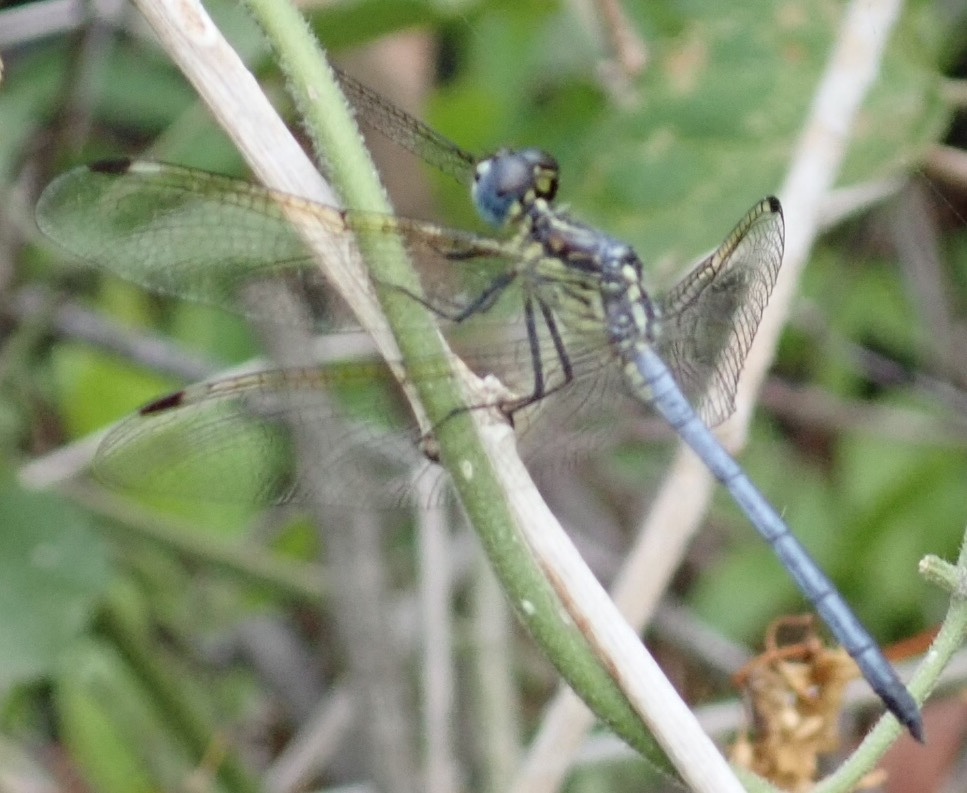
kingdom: Animalia
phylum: Arthropoda
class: Insecta
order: Odonata
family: Libellulidae
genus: Hemistigma
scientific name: Hemistigma albipunctum
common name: African pied-spot
